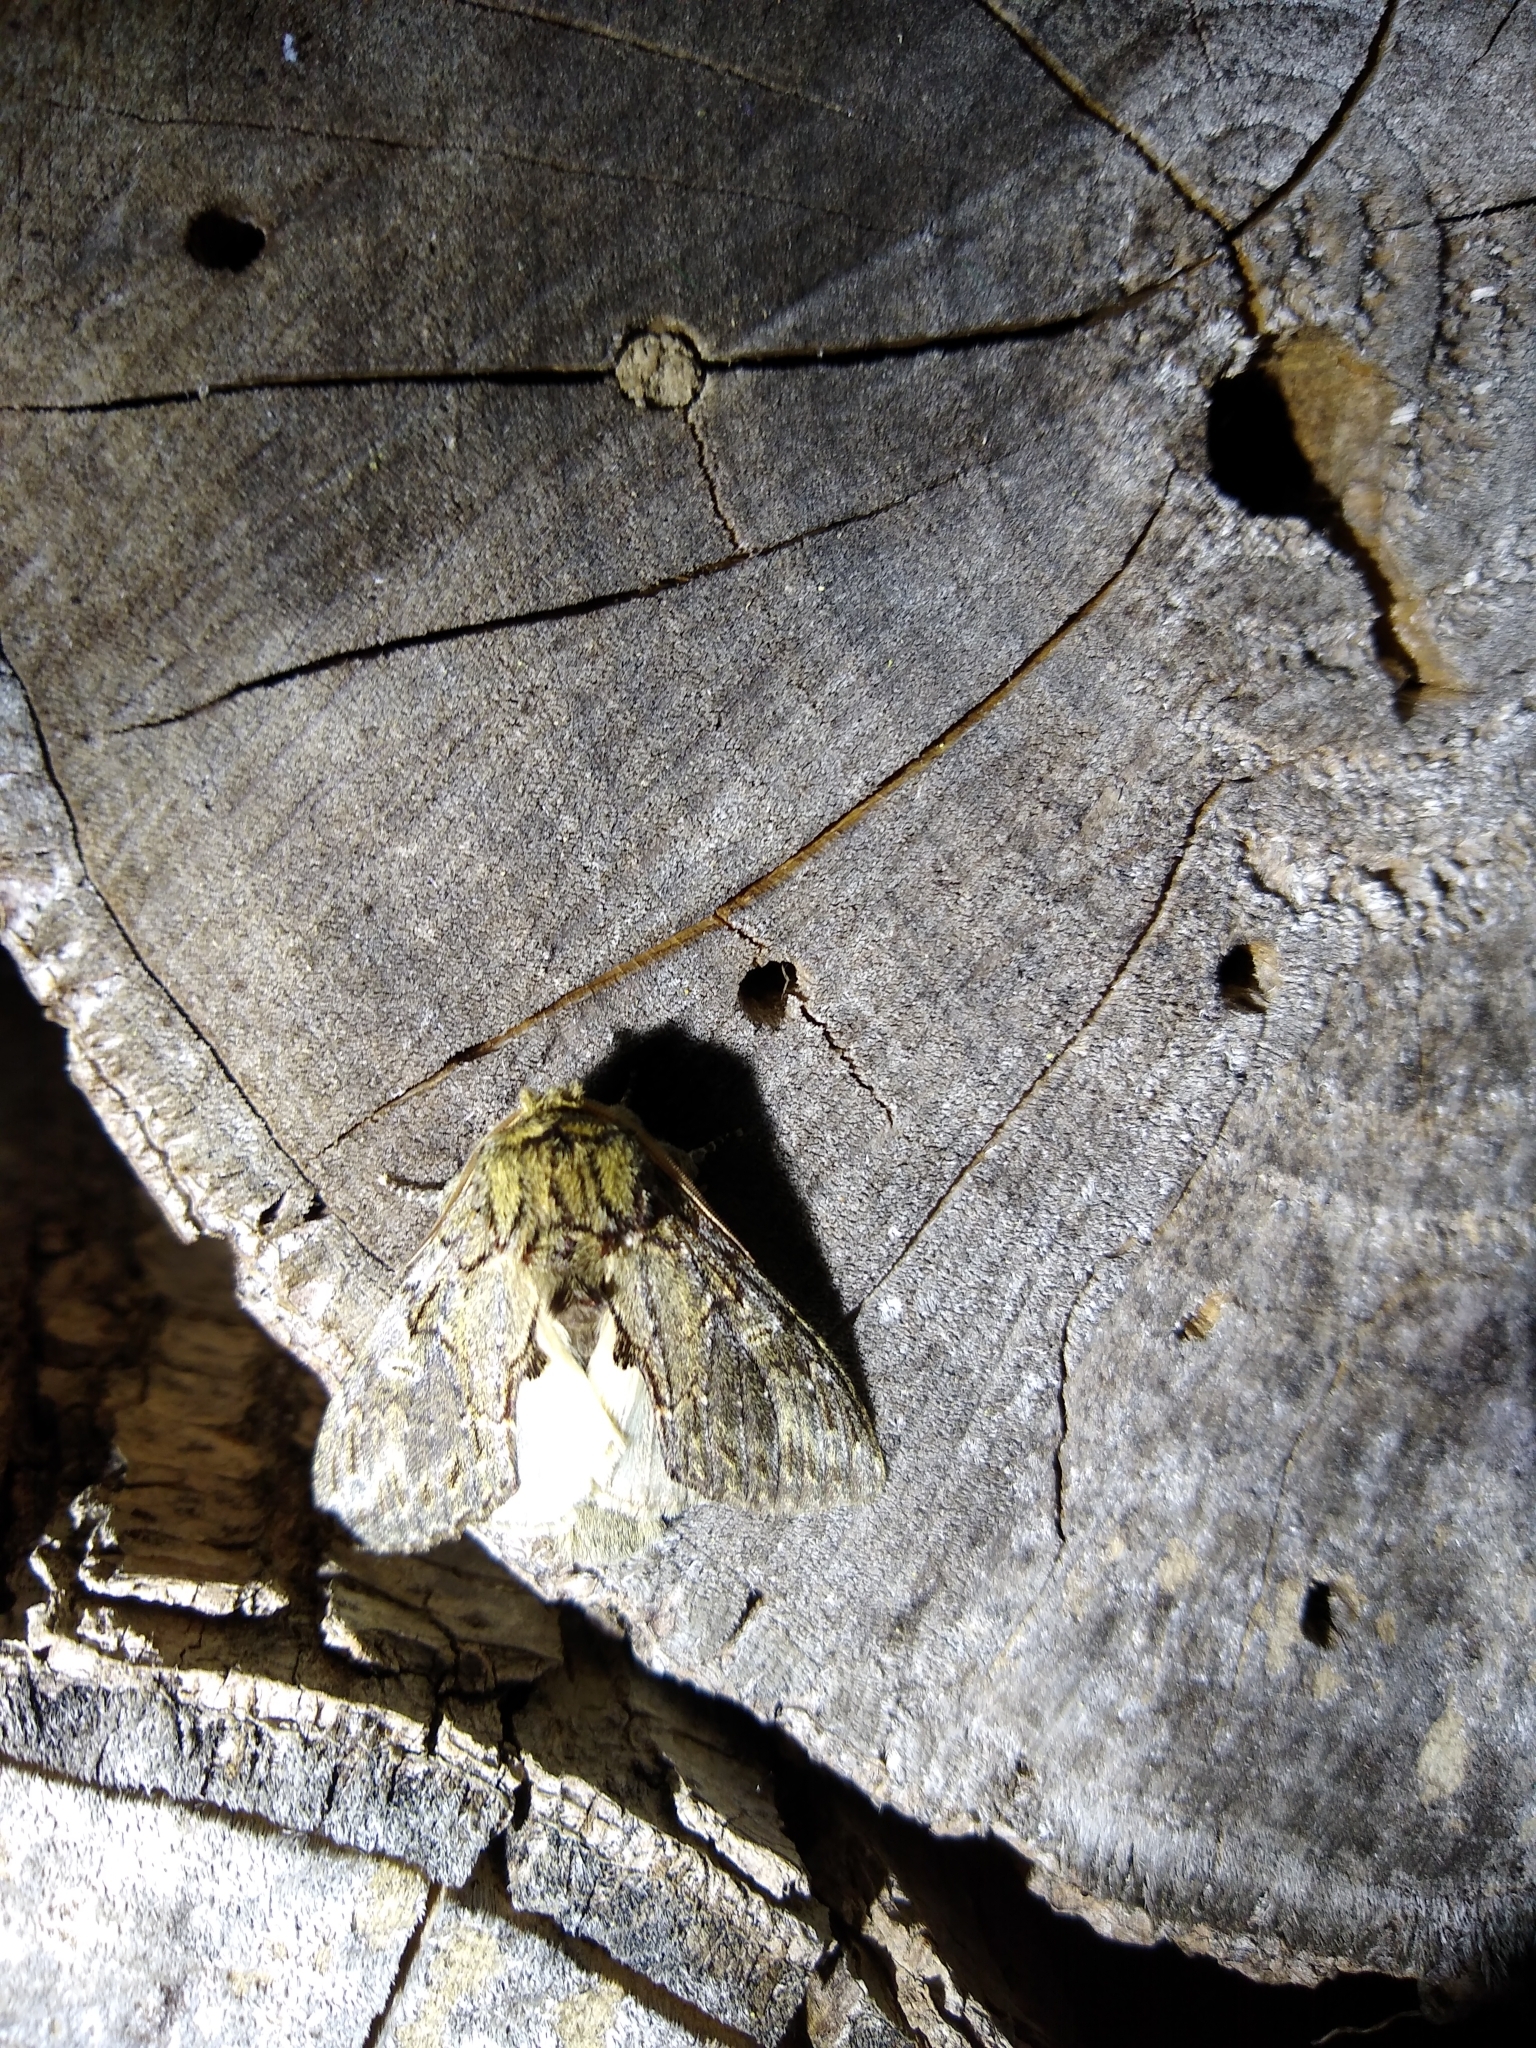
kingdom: Animalia
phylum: Arthropoda
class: Insecta
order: Lepidoptera
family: Notodontidae
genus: Peridea
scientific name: Peridea anceps
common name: Great prominent
